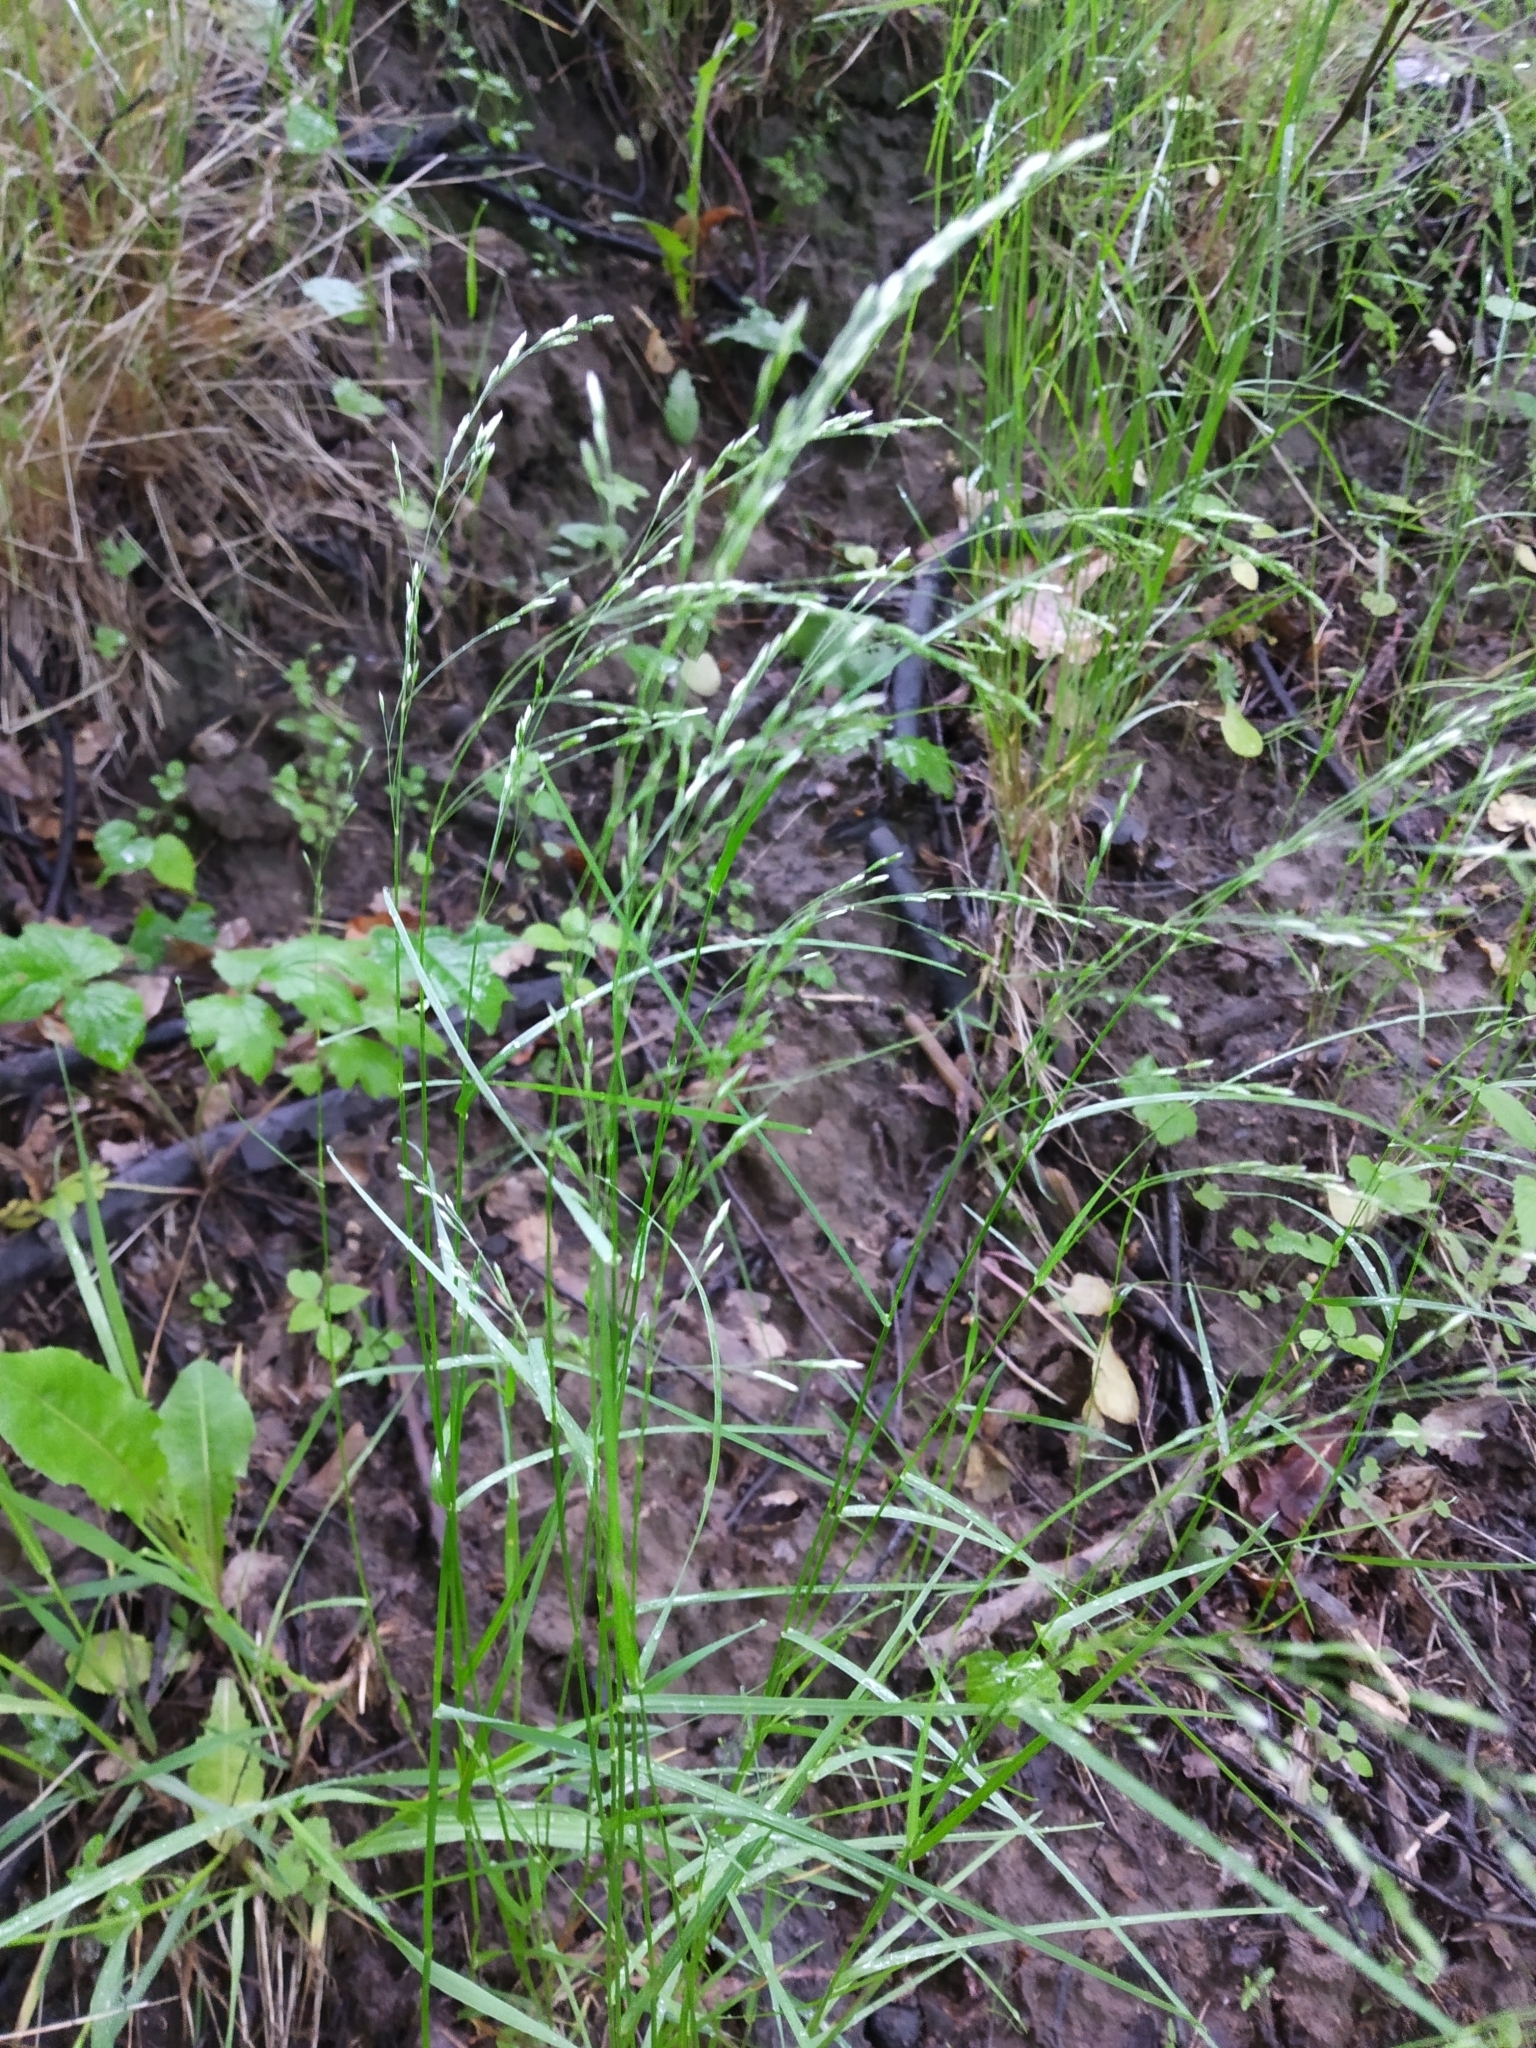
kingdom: Plantae
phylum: Tracheophyta
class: Liliopsida
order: Poales
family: Poaceae
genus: Poa
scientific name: Poa nemoralis
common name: Wood bluegrass
